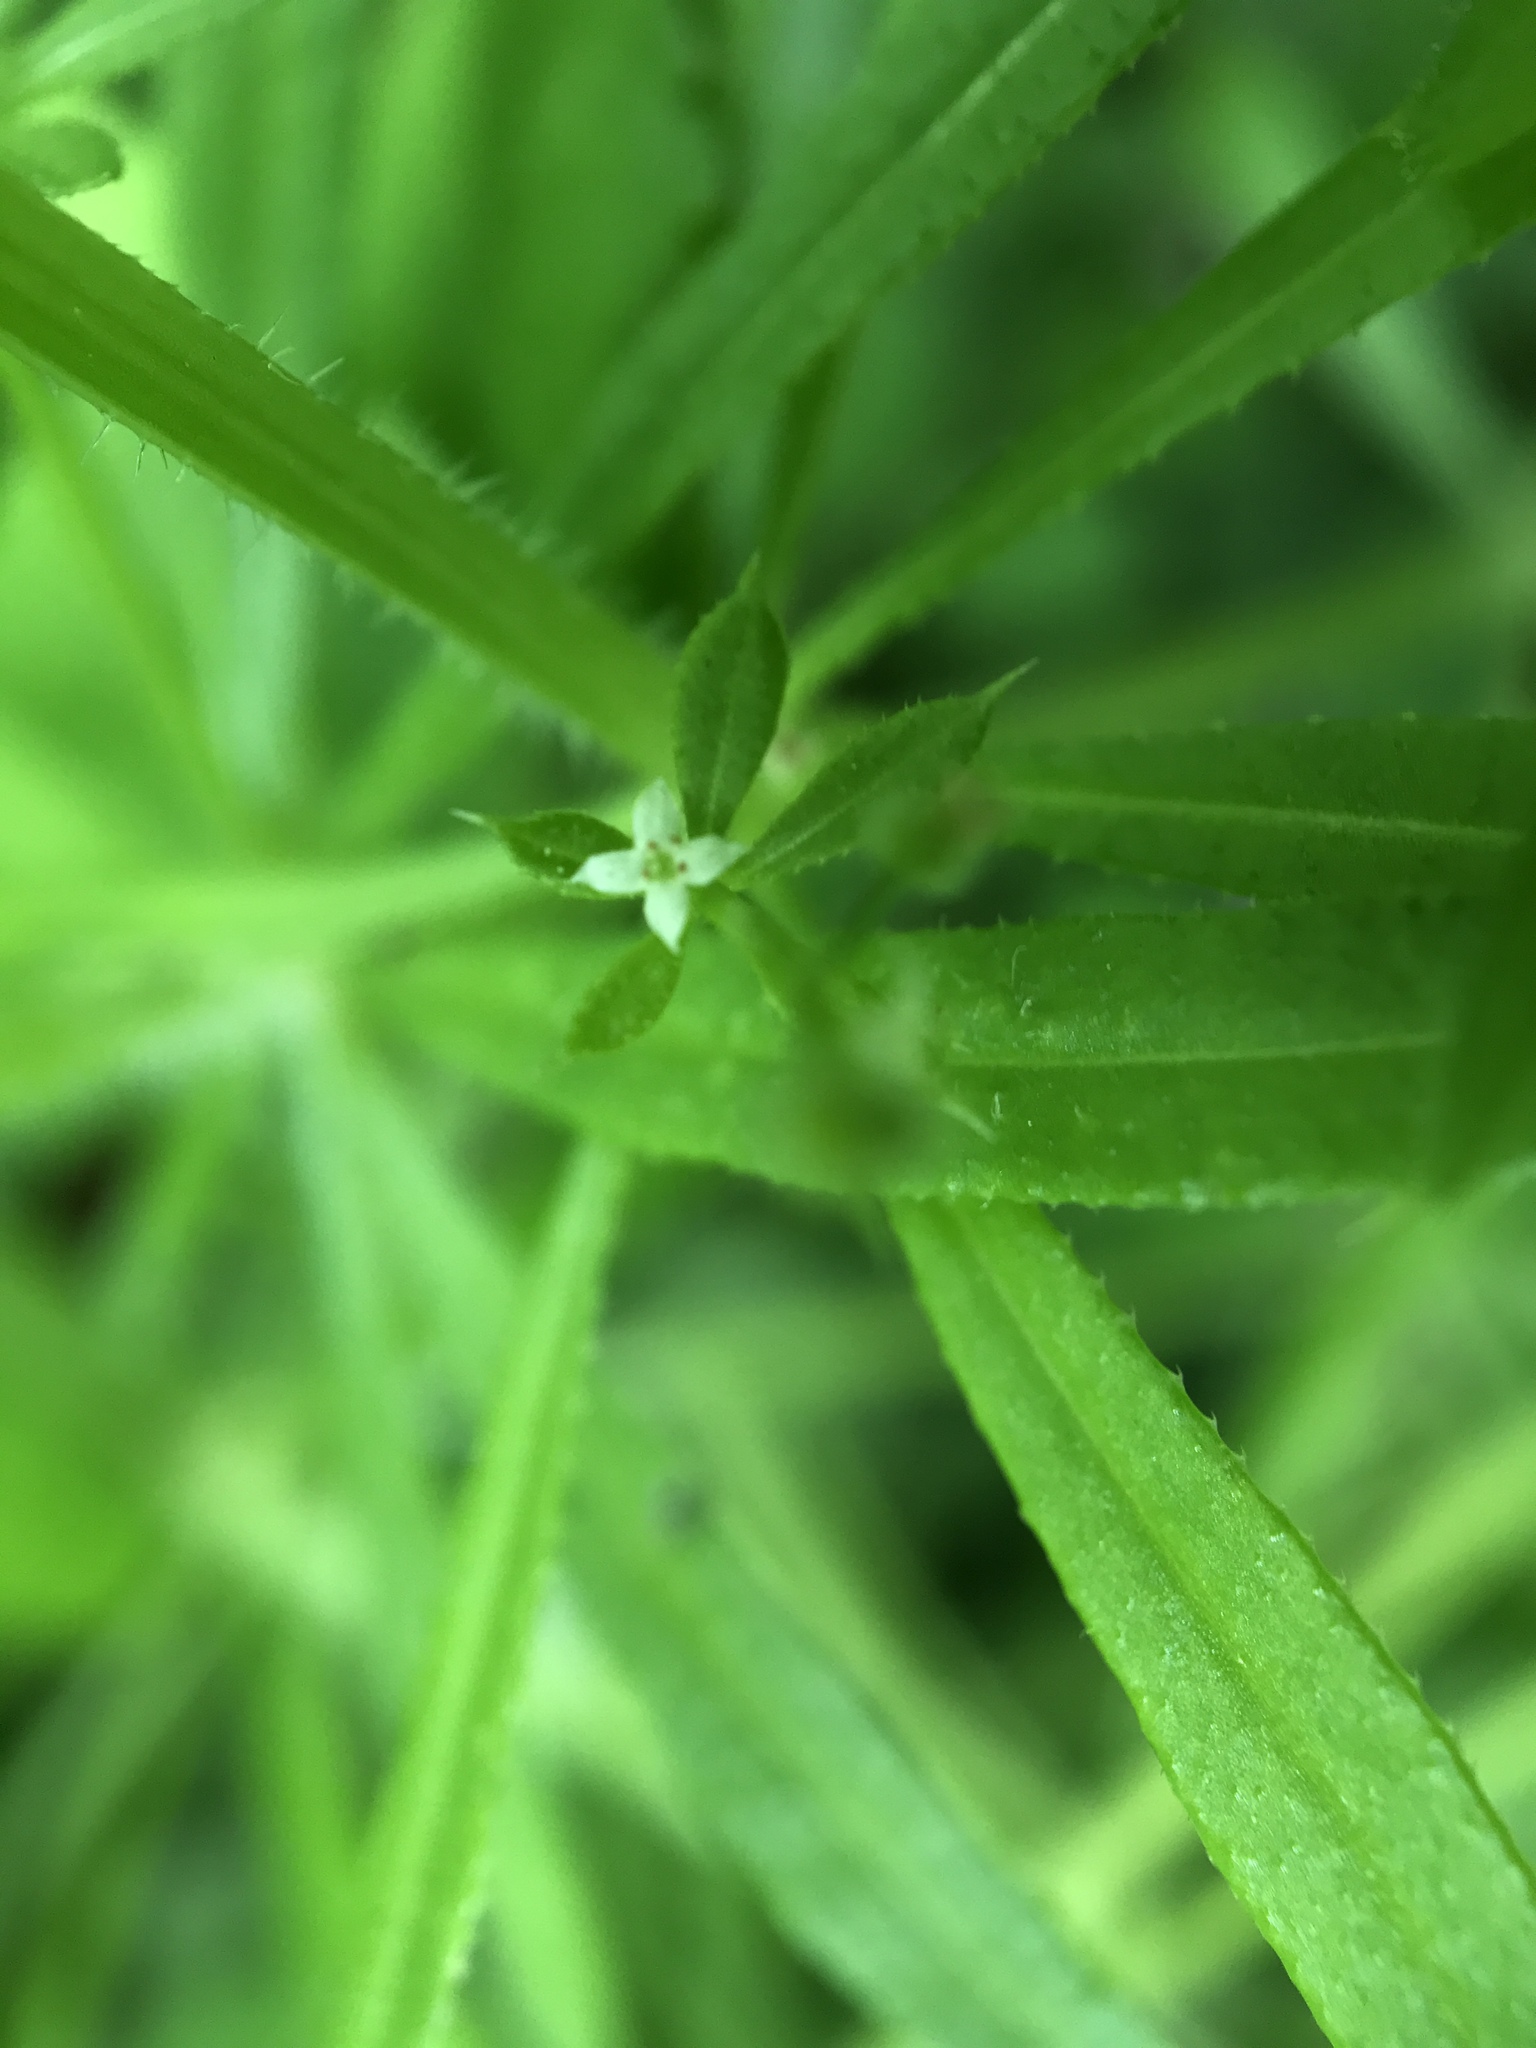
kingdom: Plantae
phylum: Tracheophyta
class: Magnoliopsida
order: Gentianales
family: Rubiaceae
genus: Galium
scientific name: Galium aparine
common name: Cleavers
